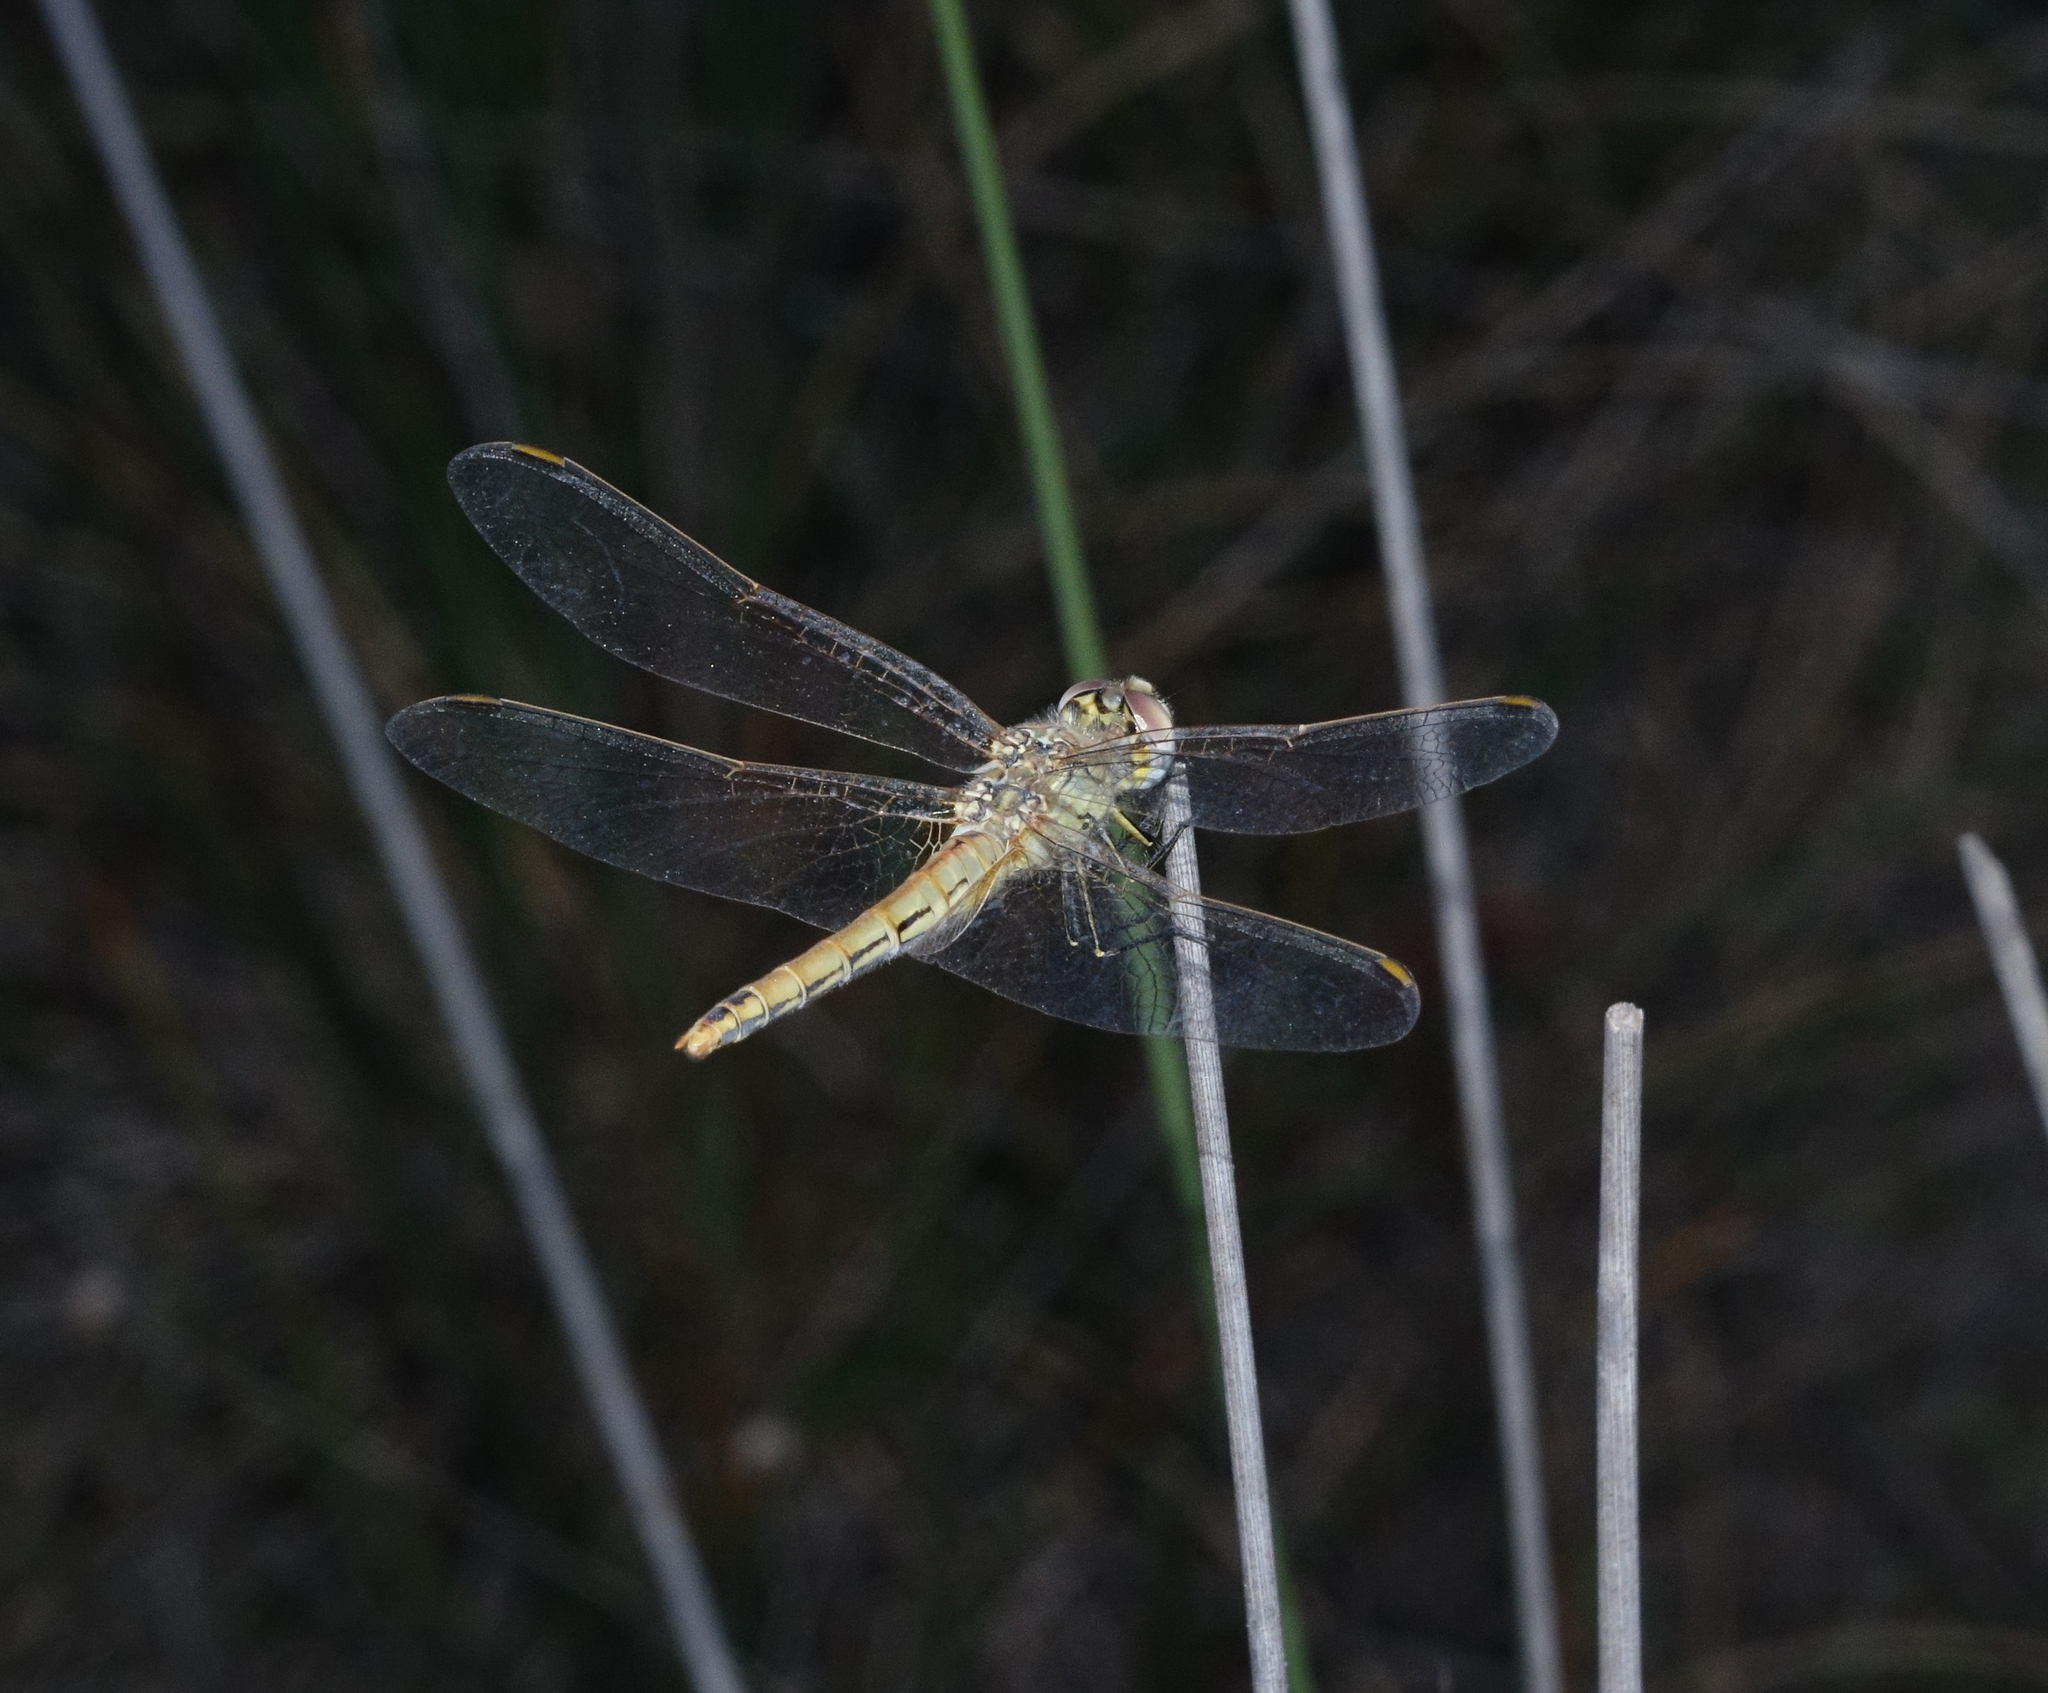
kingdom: Animalia
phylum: Arthropoda
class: Insecta
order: Odonata
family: Libellulidae
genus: Sympetrum
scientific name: Sympetrum fonscolombii
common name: Red-veined darter
